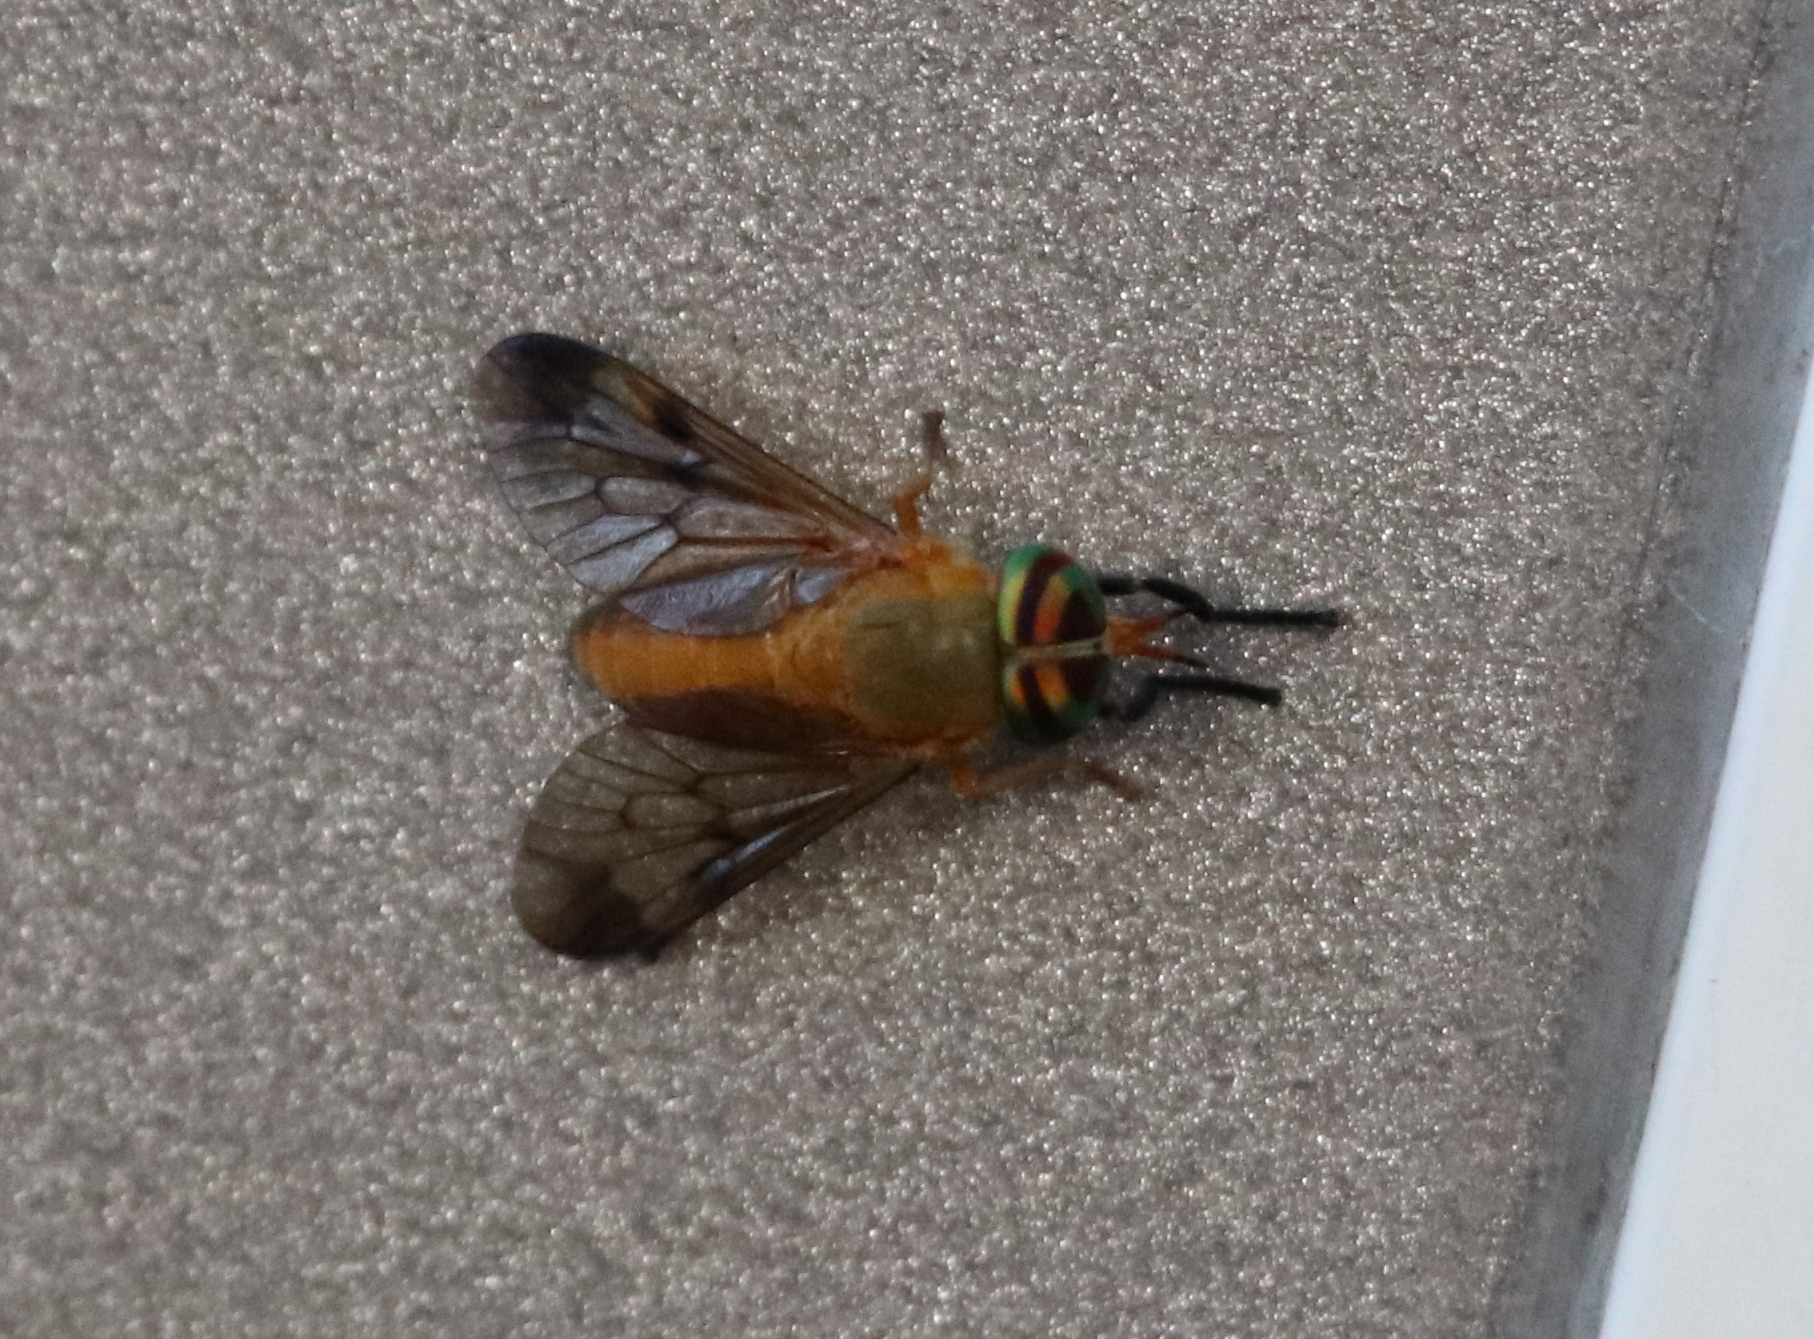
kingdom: Animalia
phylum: Arthropoda
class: Insecta
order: Diptera
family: Tabanidae
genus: Diachlorus
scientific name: Diachlorus ferrugatus
